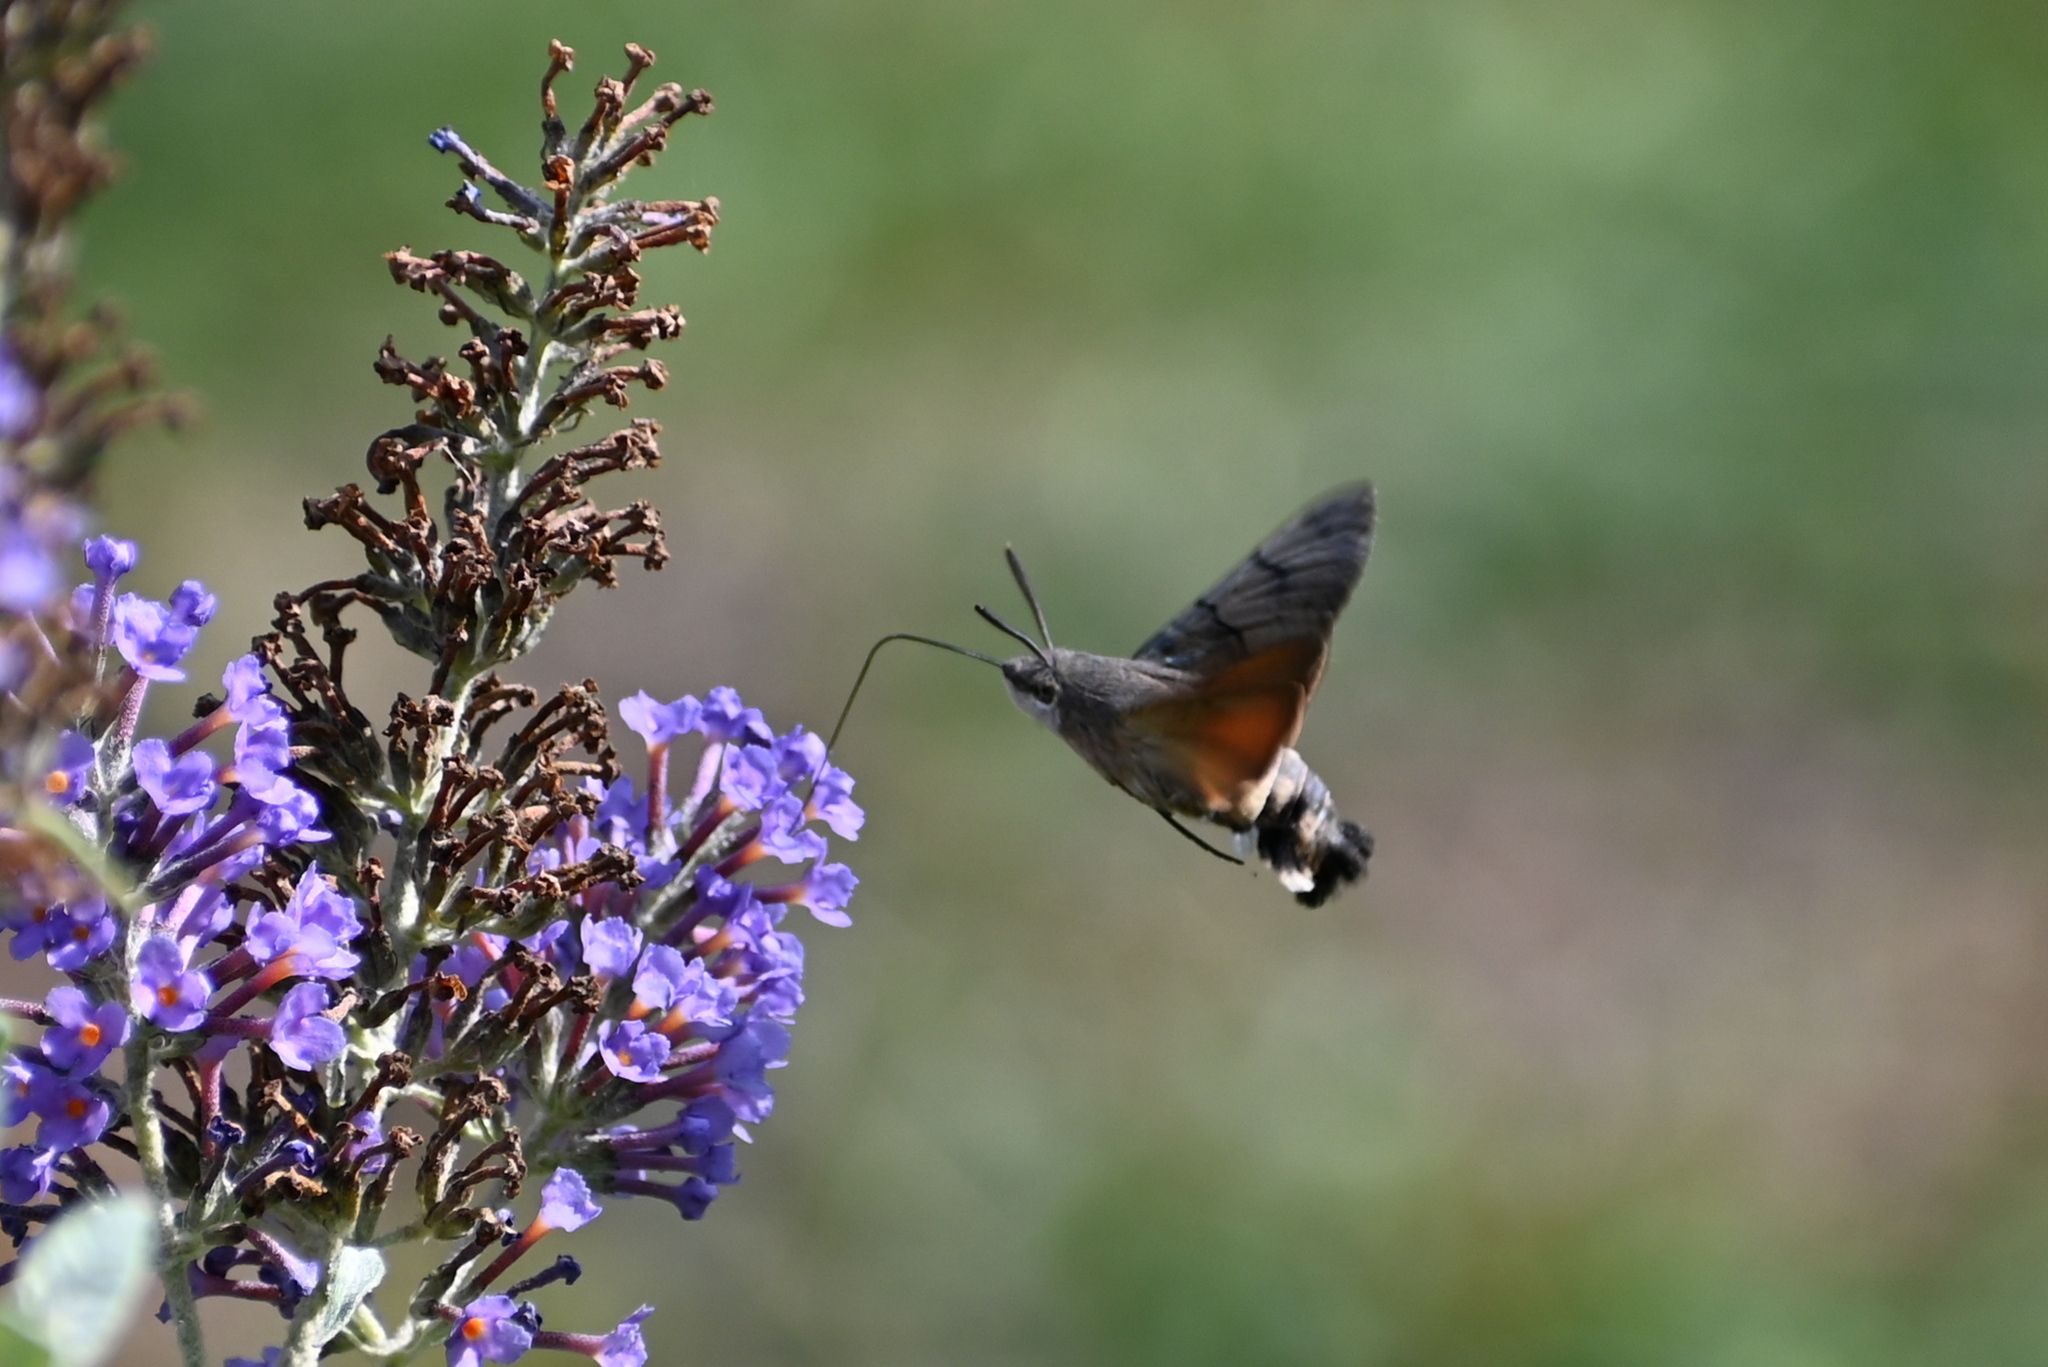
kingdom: Animalia
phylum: Arthropoda
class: Insecta
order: Lepidoptera
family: Sphingidae
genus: Macroglossum
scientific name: Macroglossum stellatarum
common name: Humming-bird hawk-moth
